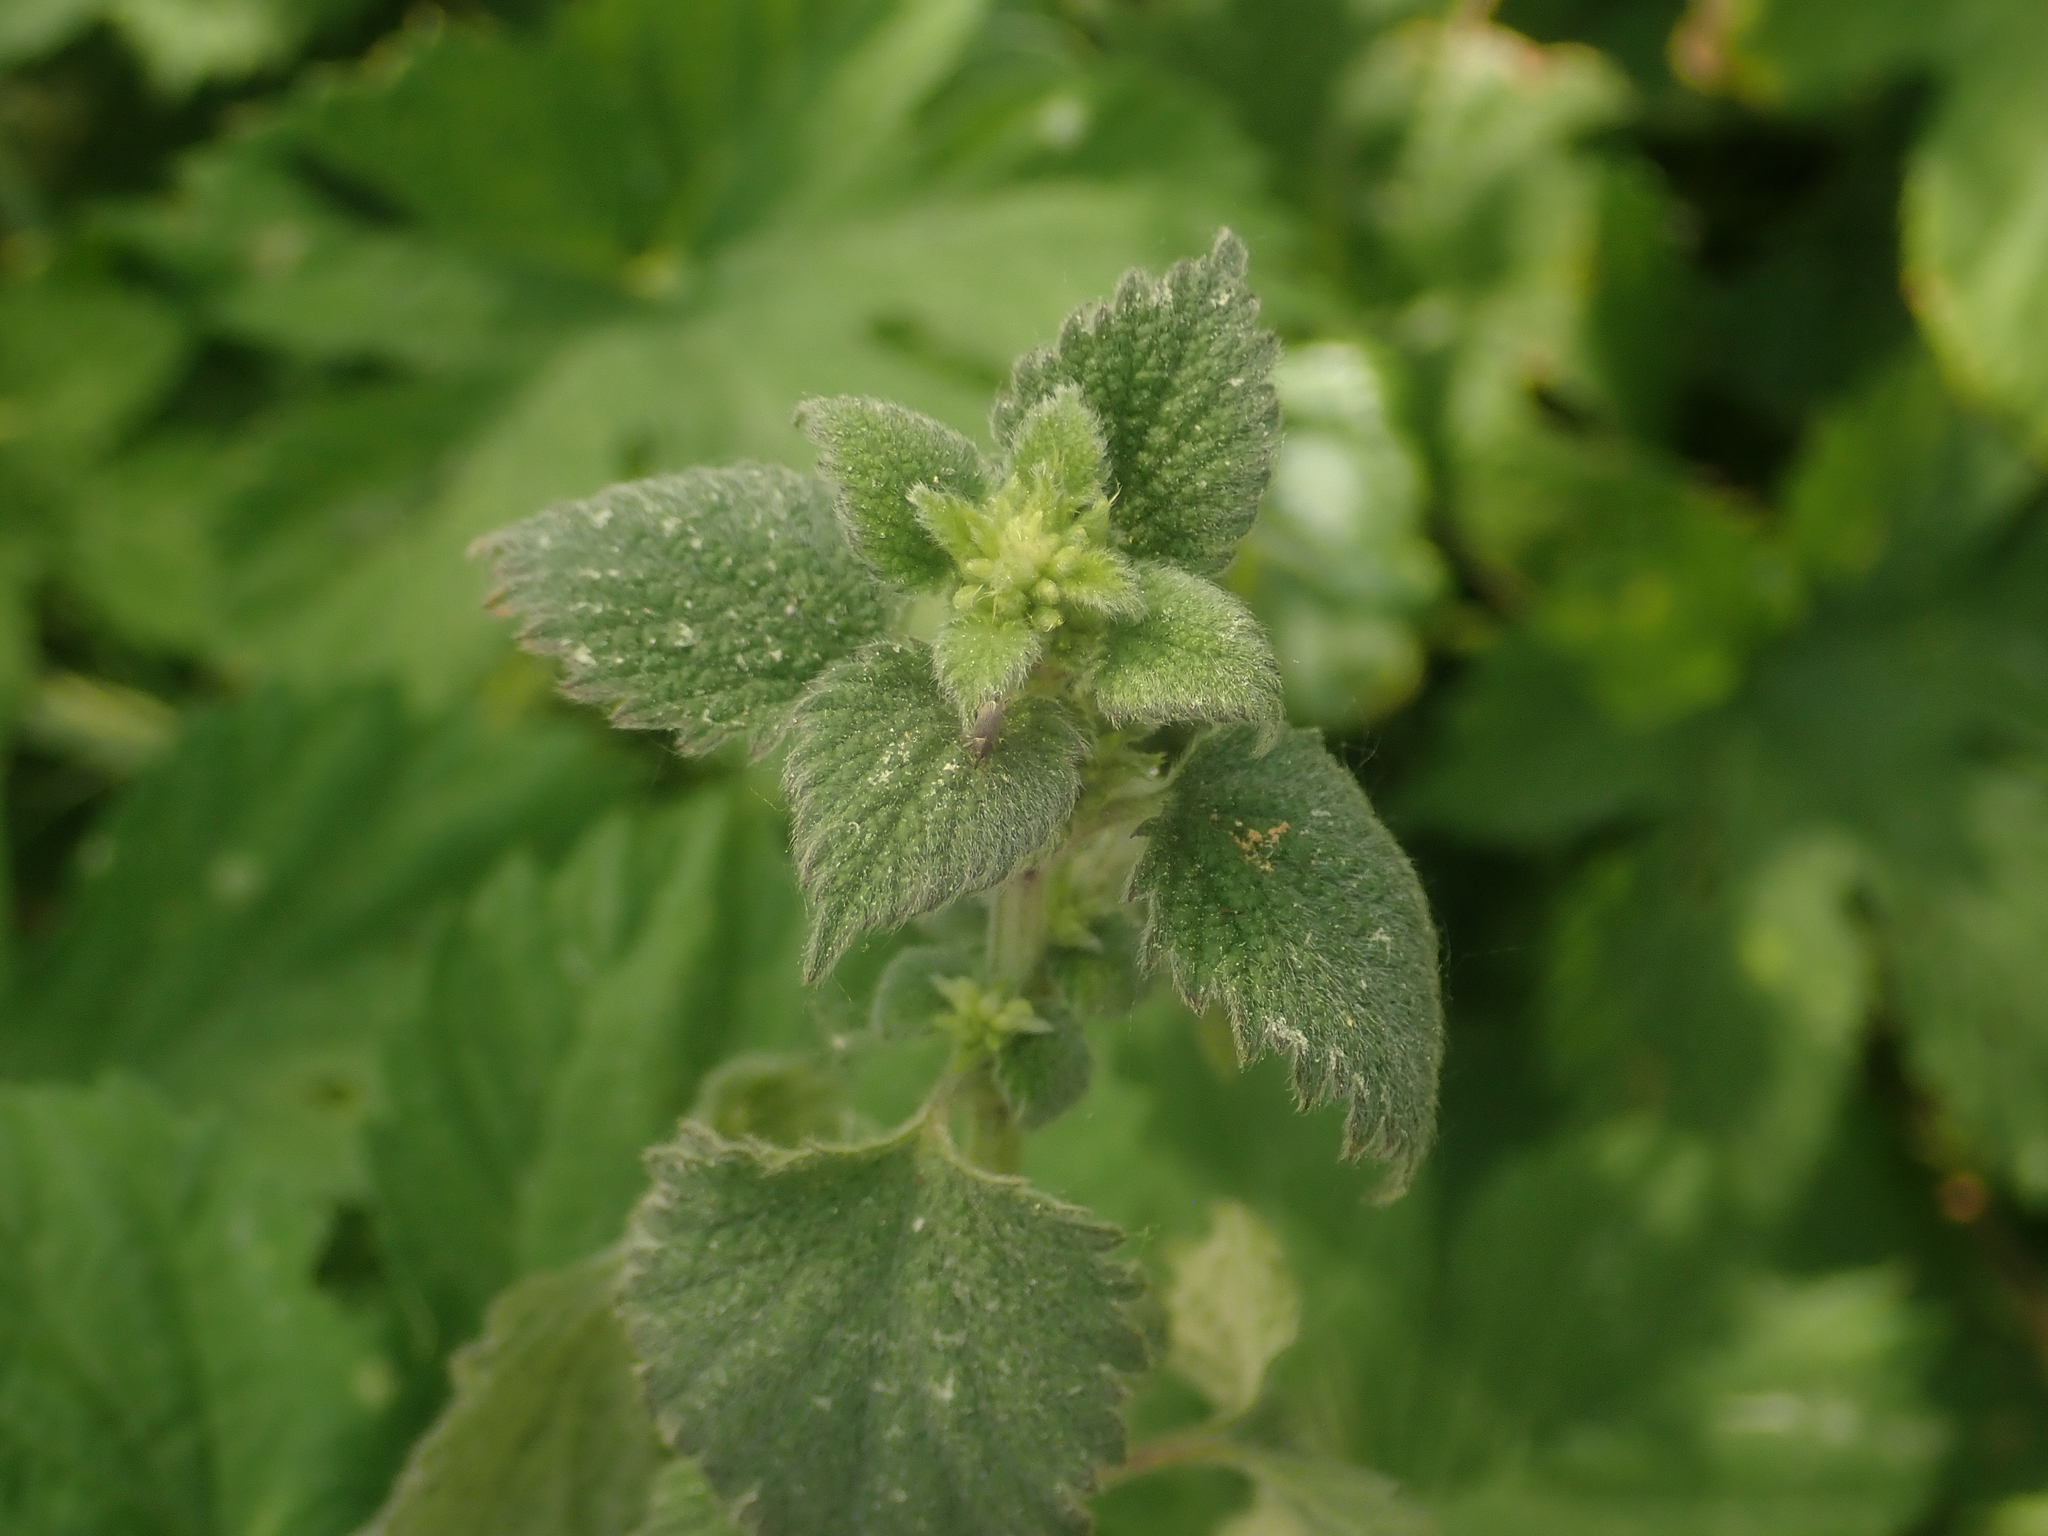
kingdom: Plantae
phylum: Tracheophyta
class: Magnoliopsida
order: Lamiales
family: Lamiaceae
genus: Ballota
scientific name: Ballota nigra
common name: Black horehound
